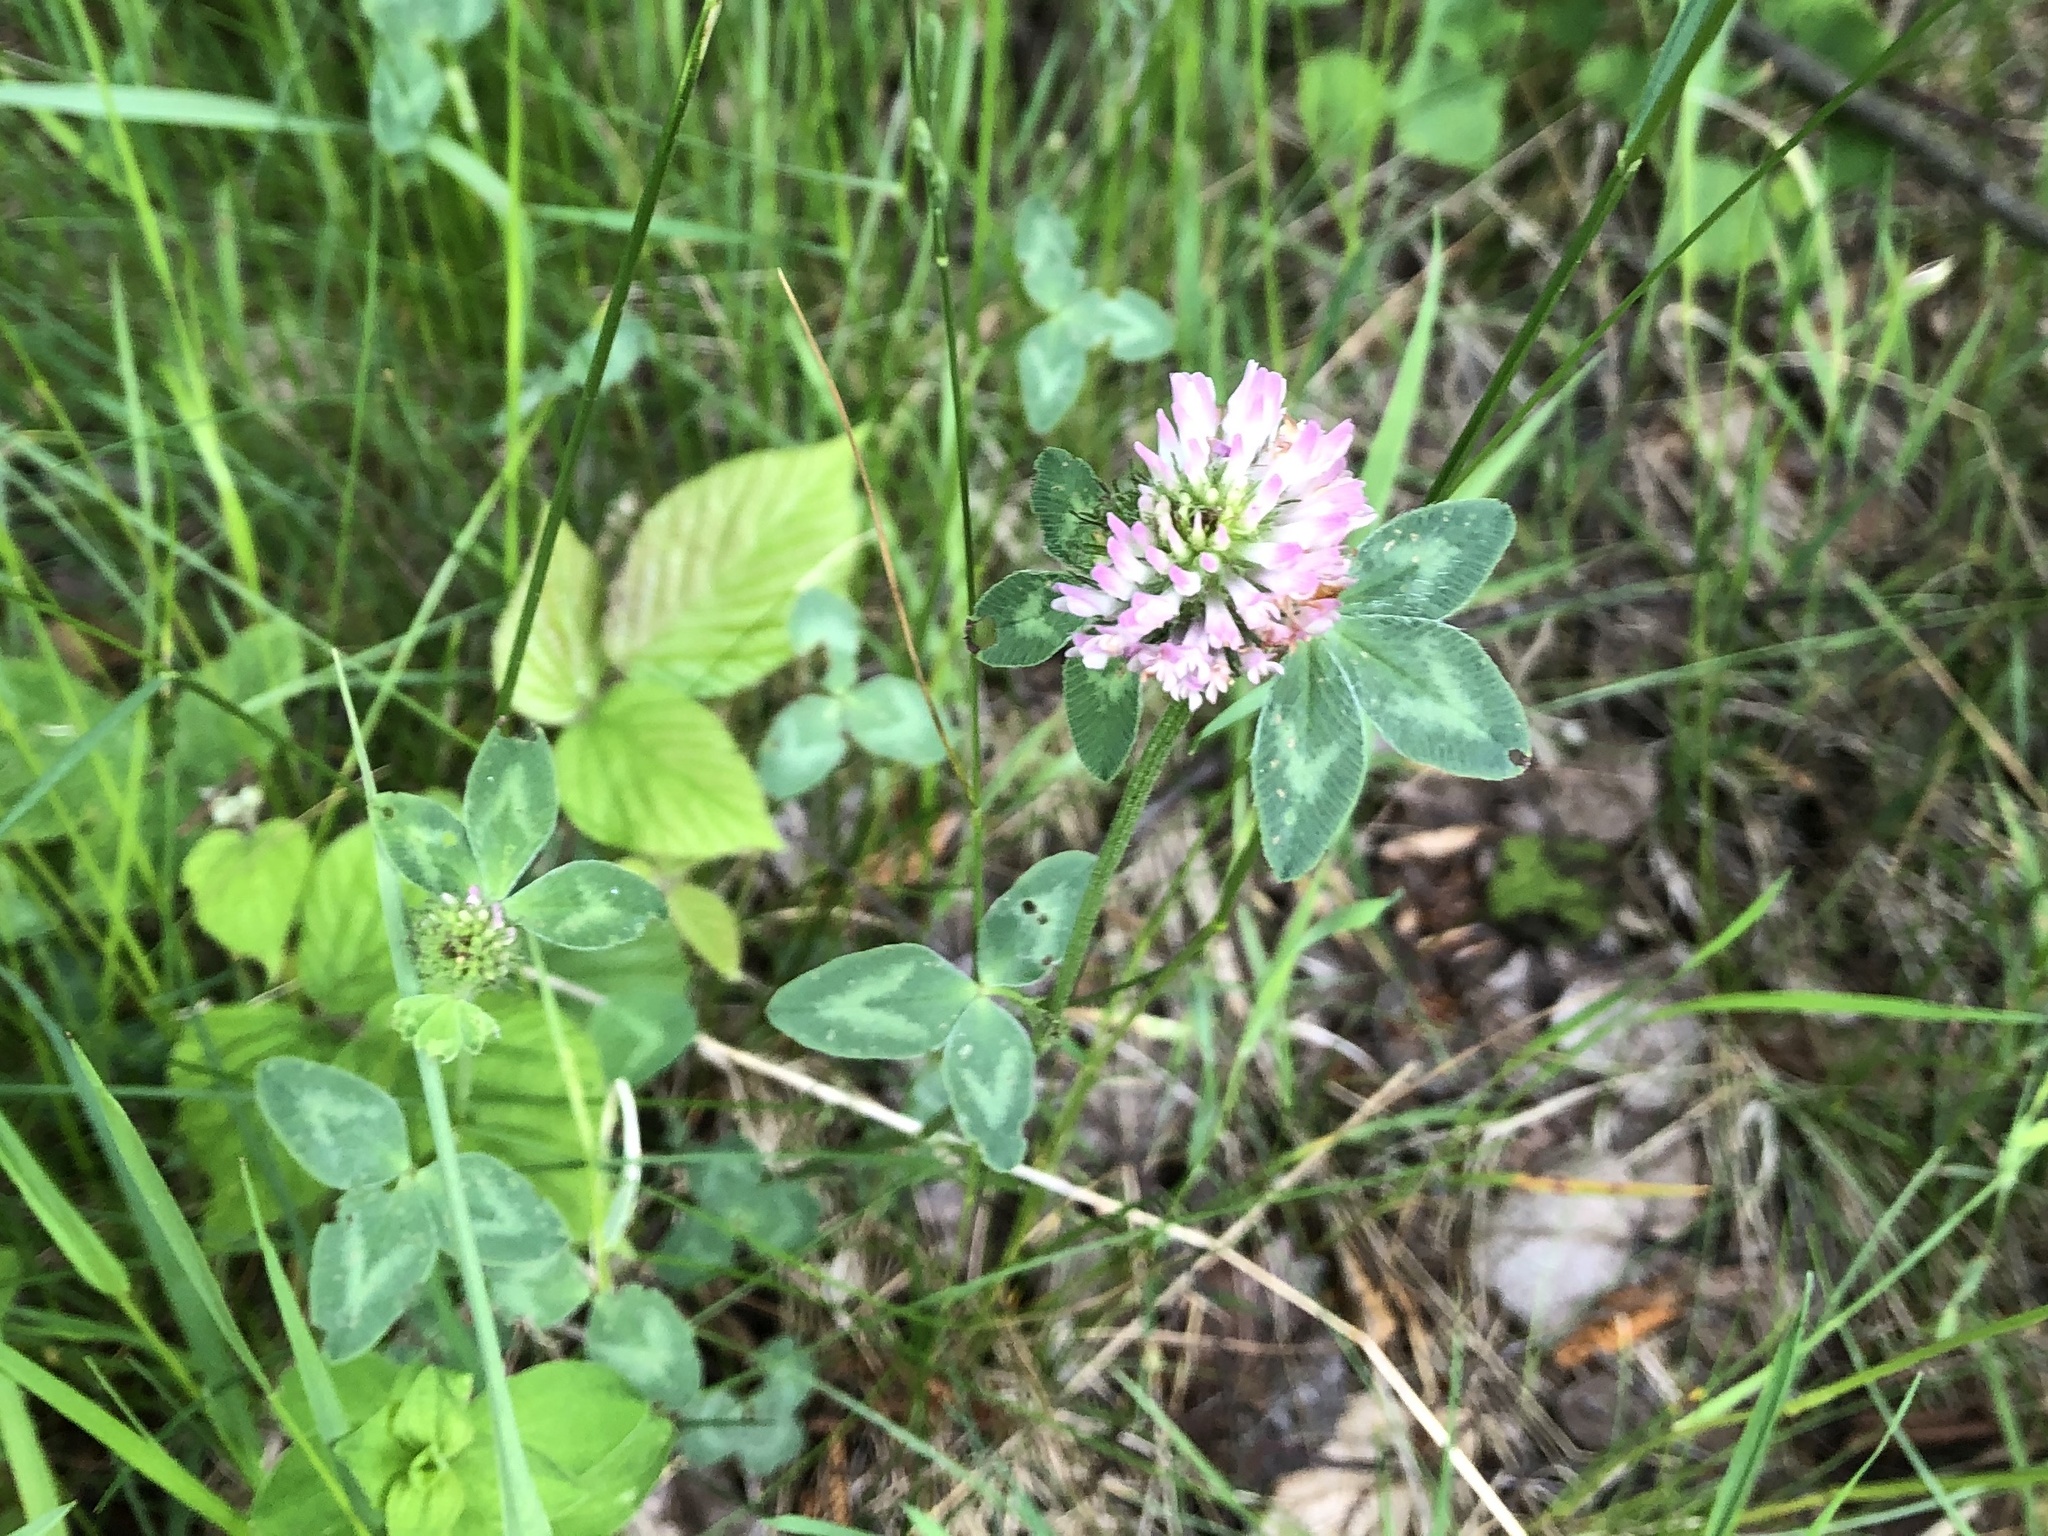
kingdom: Plantae
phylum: Tracheophyta
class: Magnoliopsida
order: Fabales
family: Fabaceae
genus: Trifolium
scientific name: Trifolium pratense
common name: Red clover
